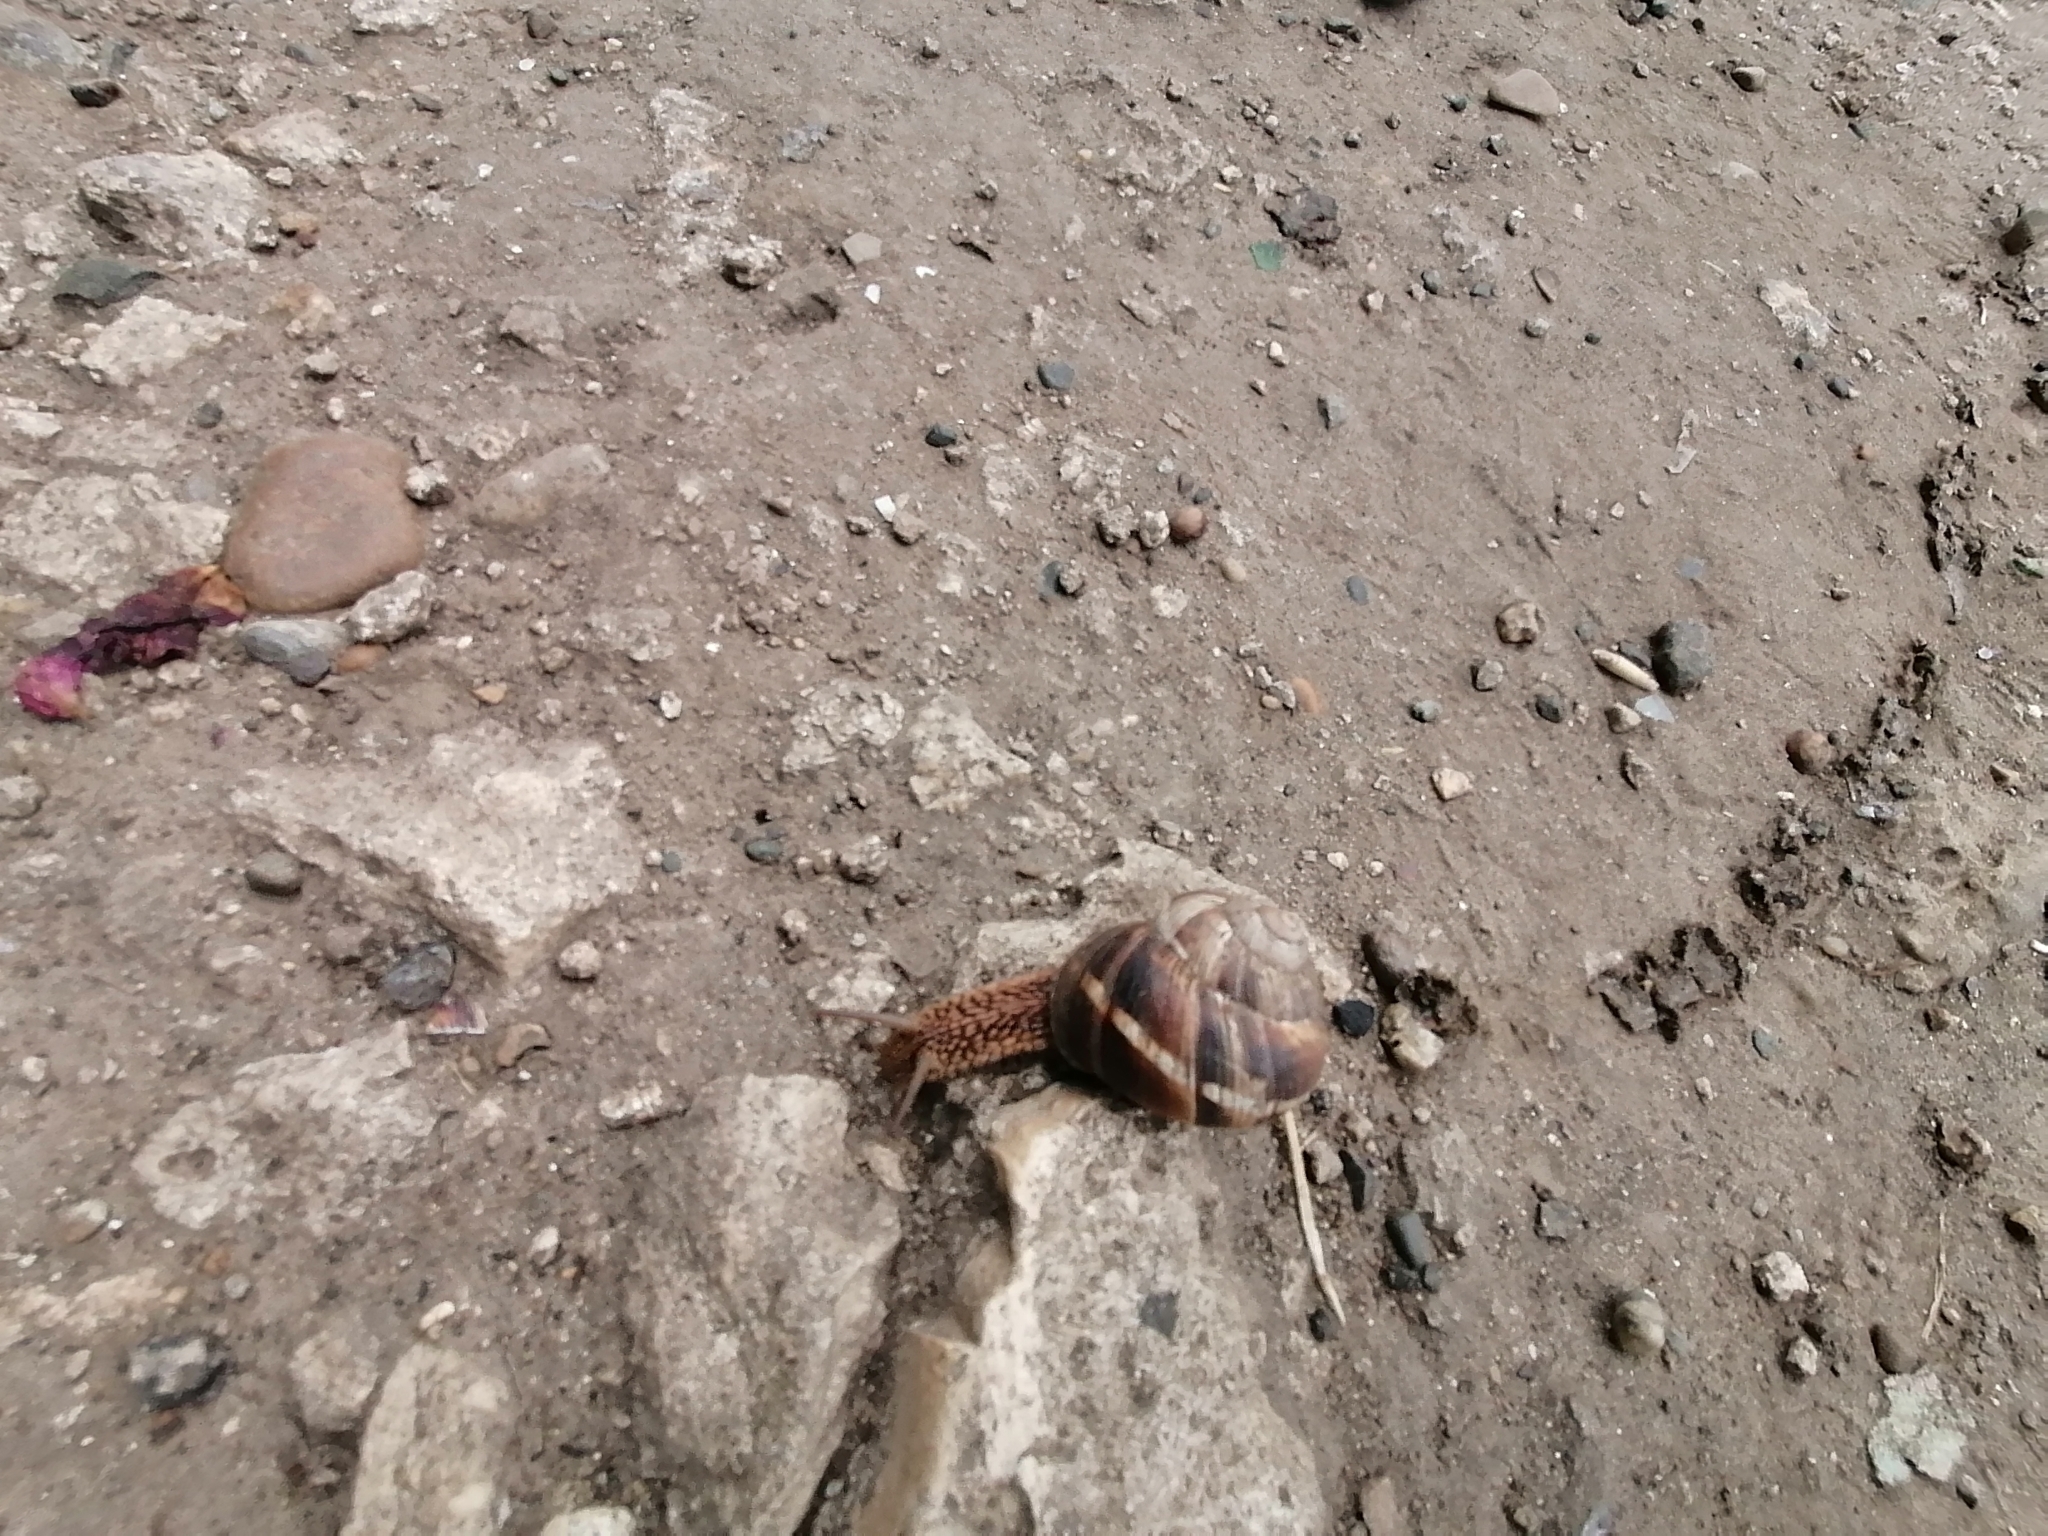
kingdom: Animalia
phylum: Mollusca
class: Gastropoda
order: Stylommatophora
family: Helicidae
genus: Helix
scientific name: Helix lucorum
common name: Turkish snail
